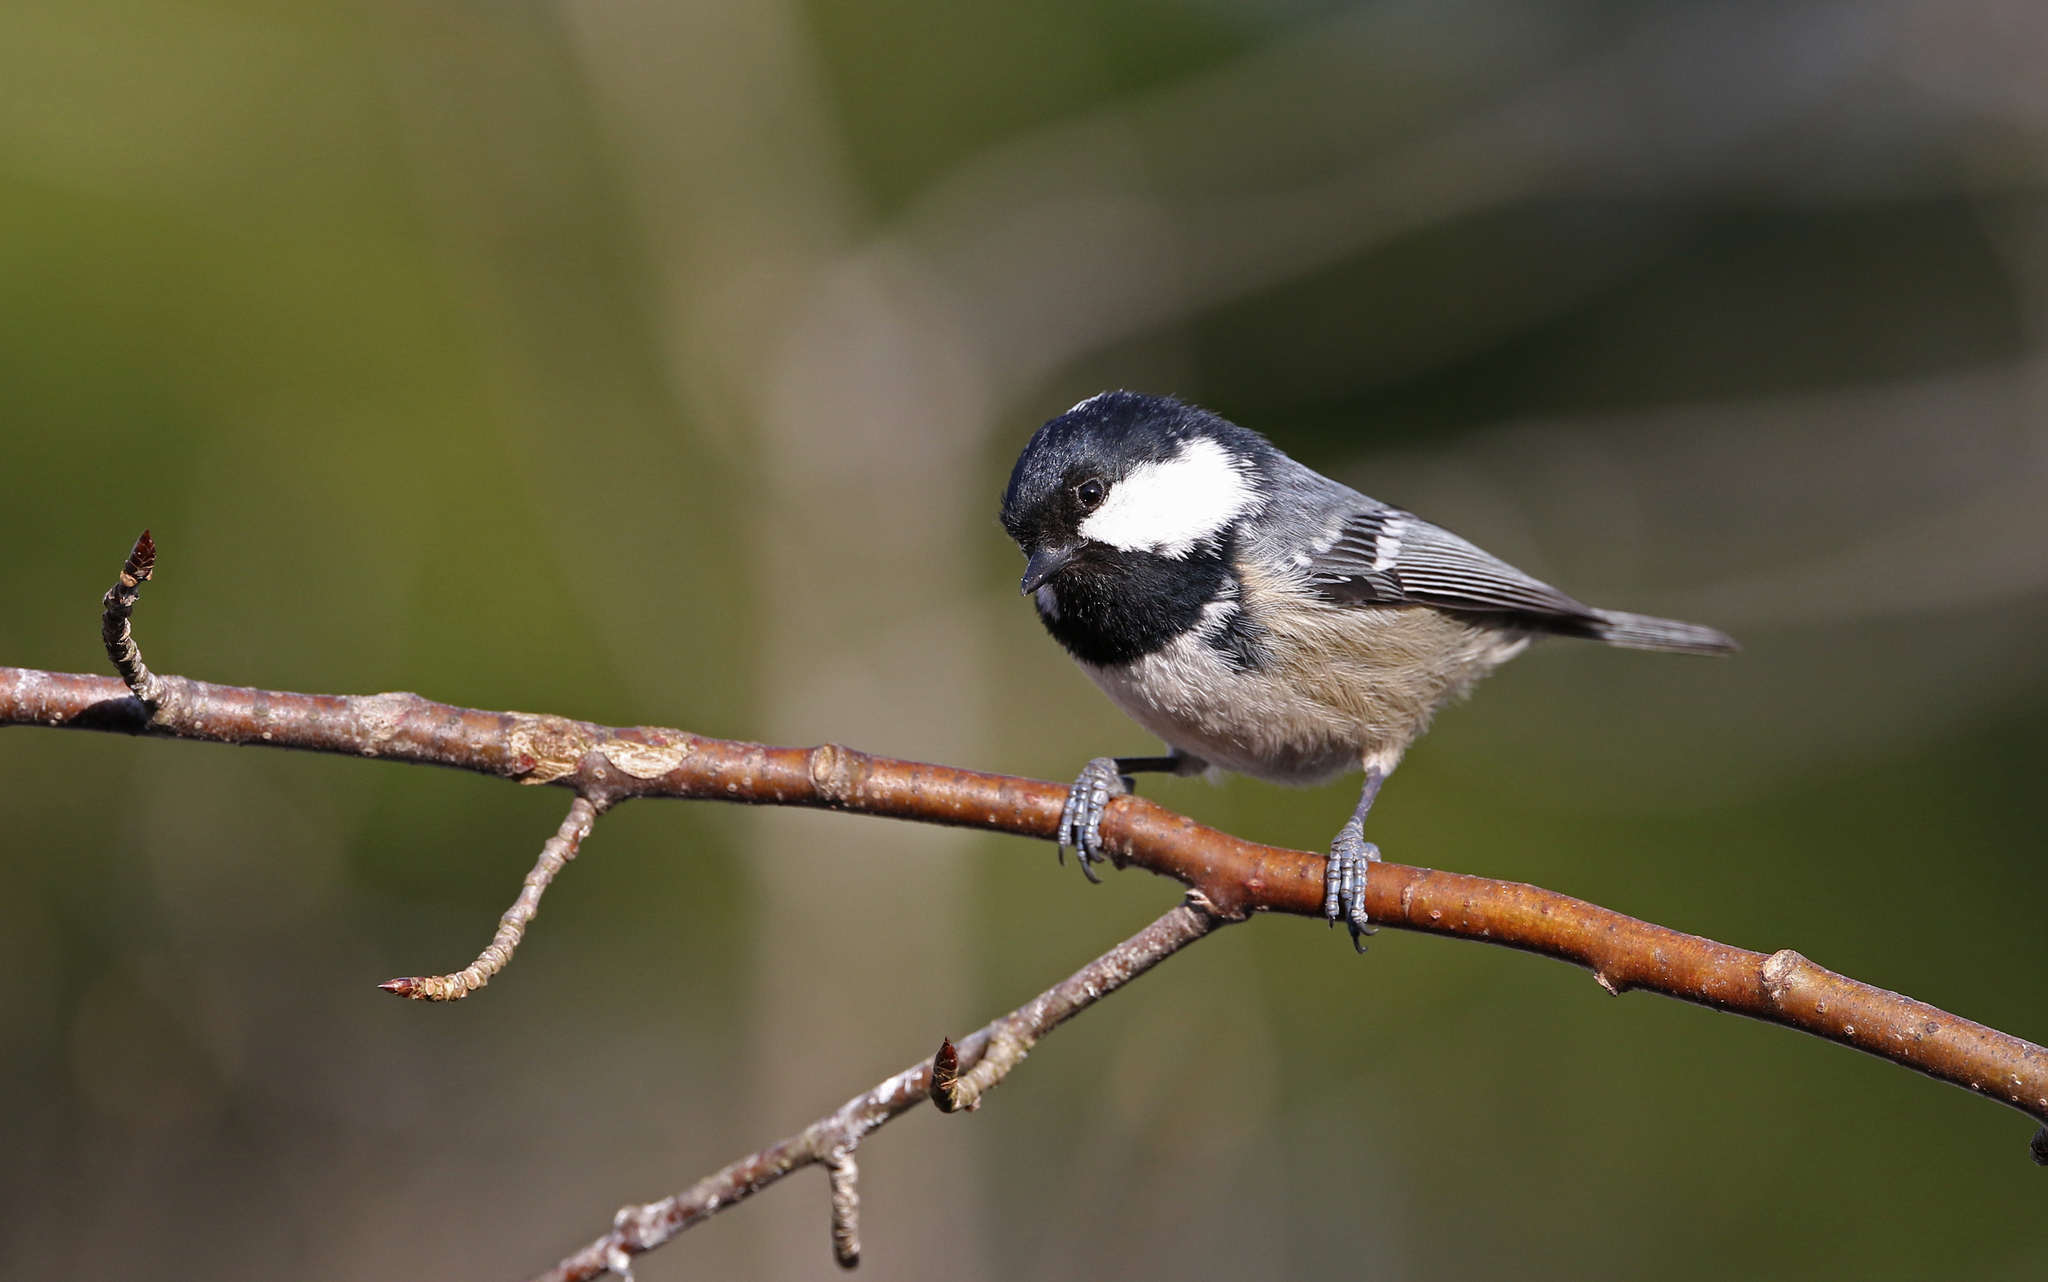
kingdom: Animalia
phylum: Chordata
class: Aves
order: Passeriformes
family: Paridae
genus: Periparus
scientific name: Periparus ater
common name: Coal tit
